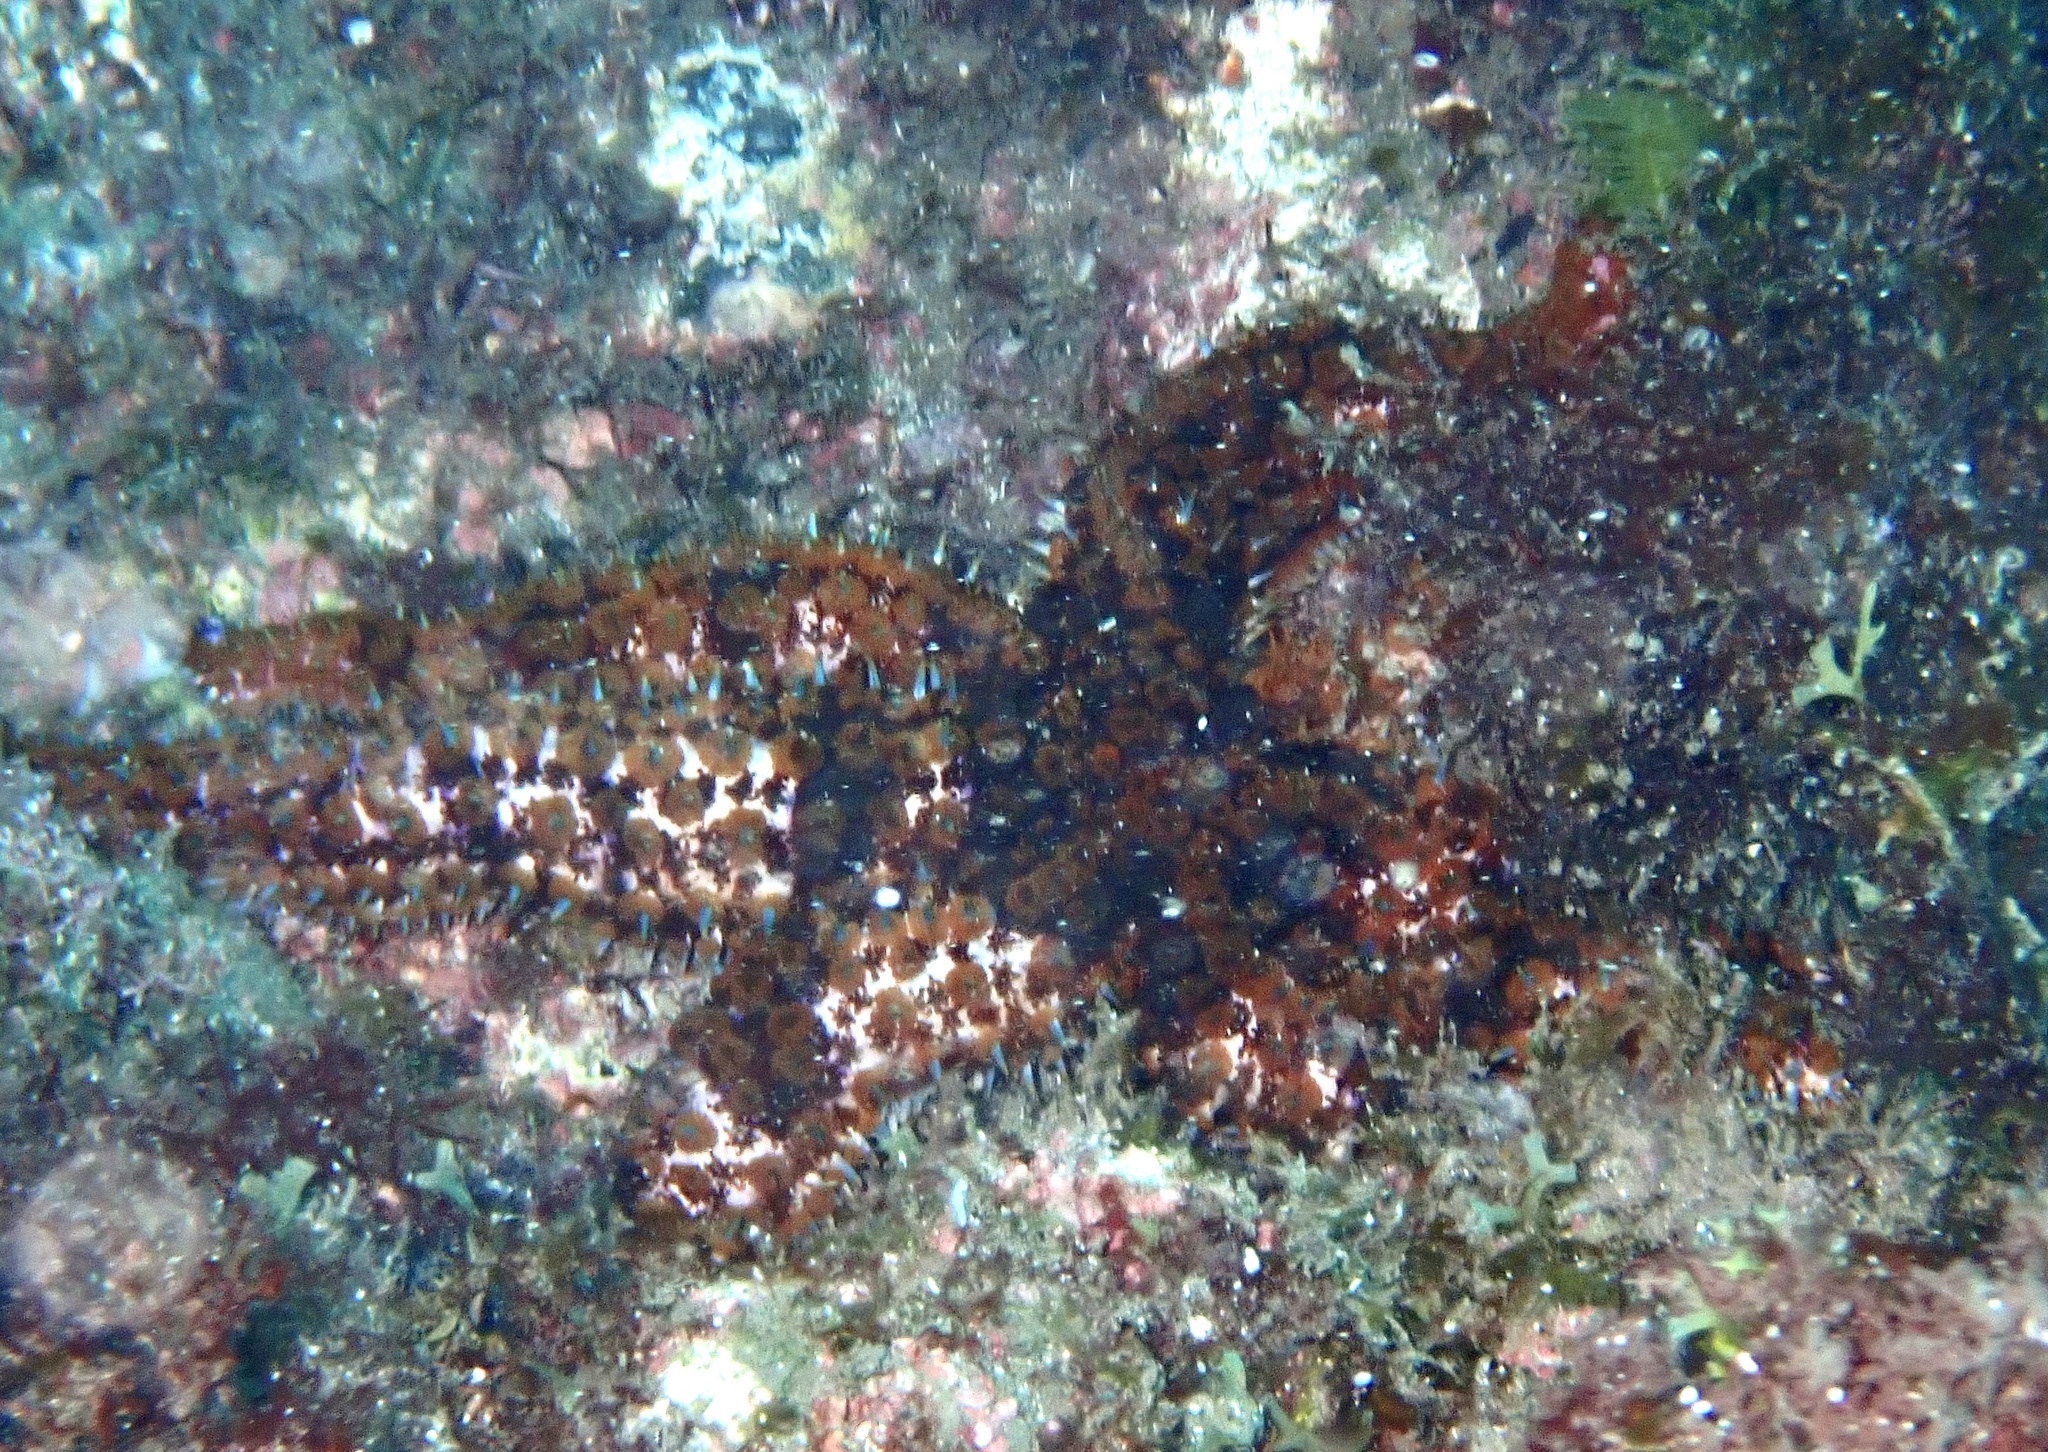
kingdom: Animalia
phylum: Echinodermata
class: Asteroidea
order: Forcipulatida
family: Asteriidae
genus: Coscinasterias
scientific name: Coscinasterias tenuispina
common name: Blue spiny starfish
